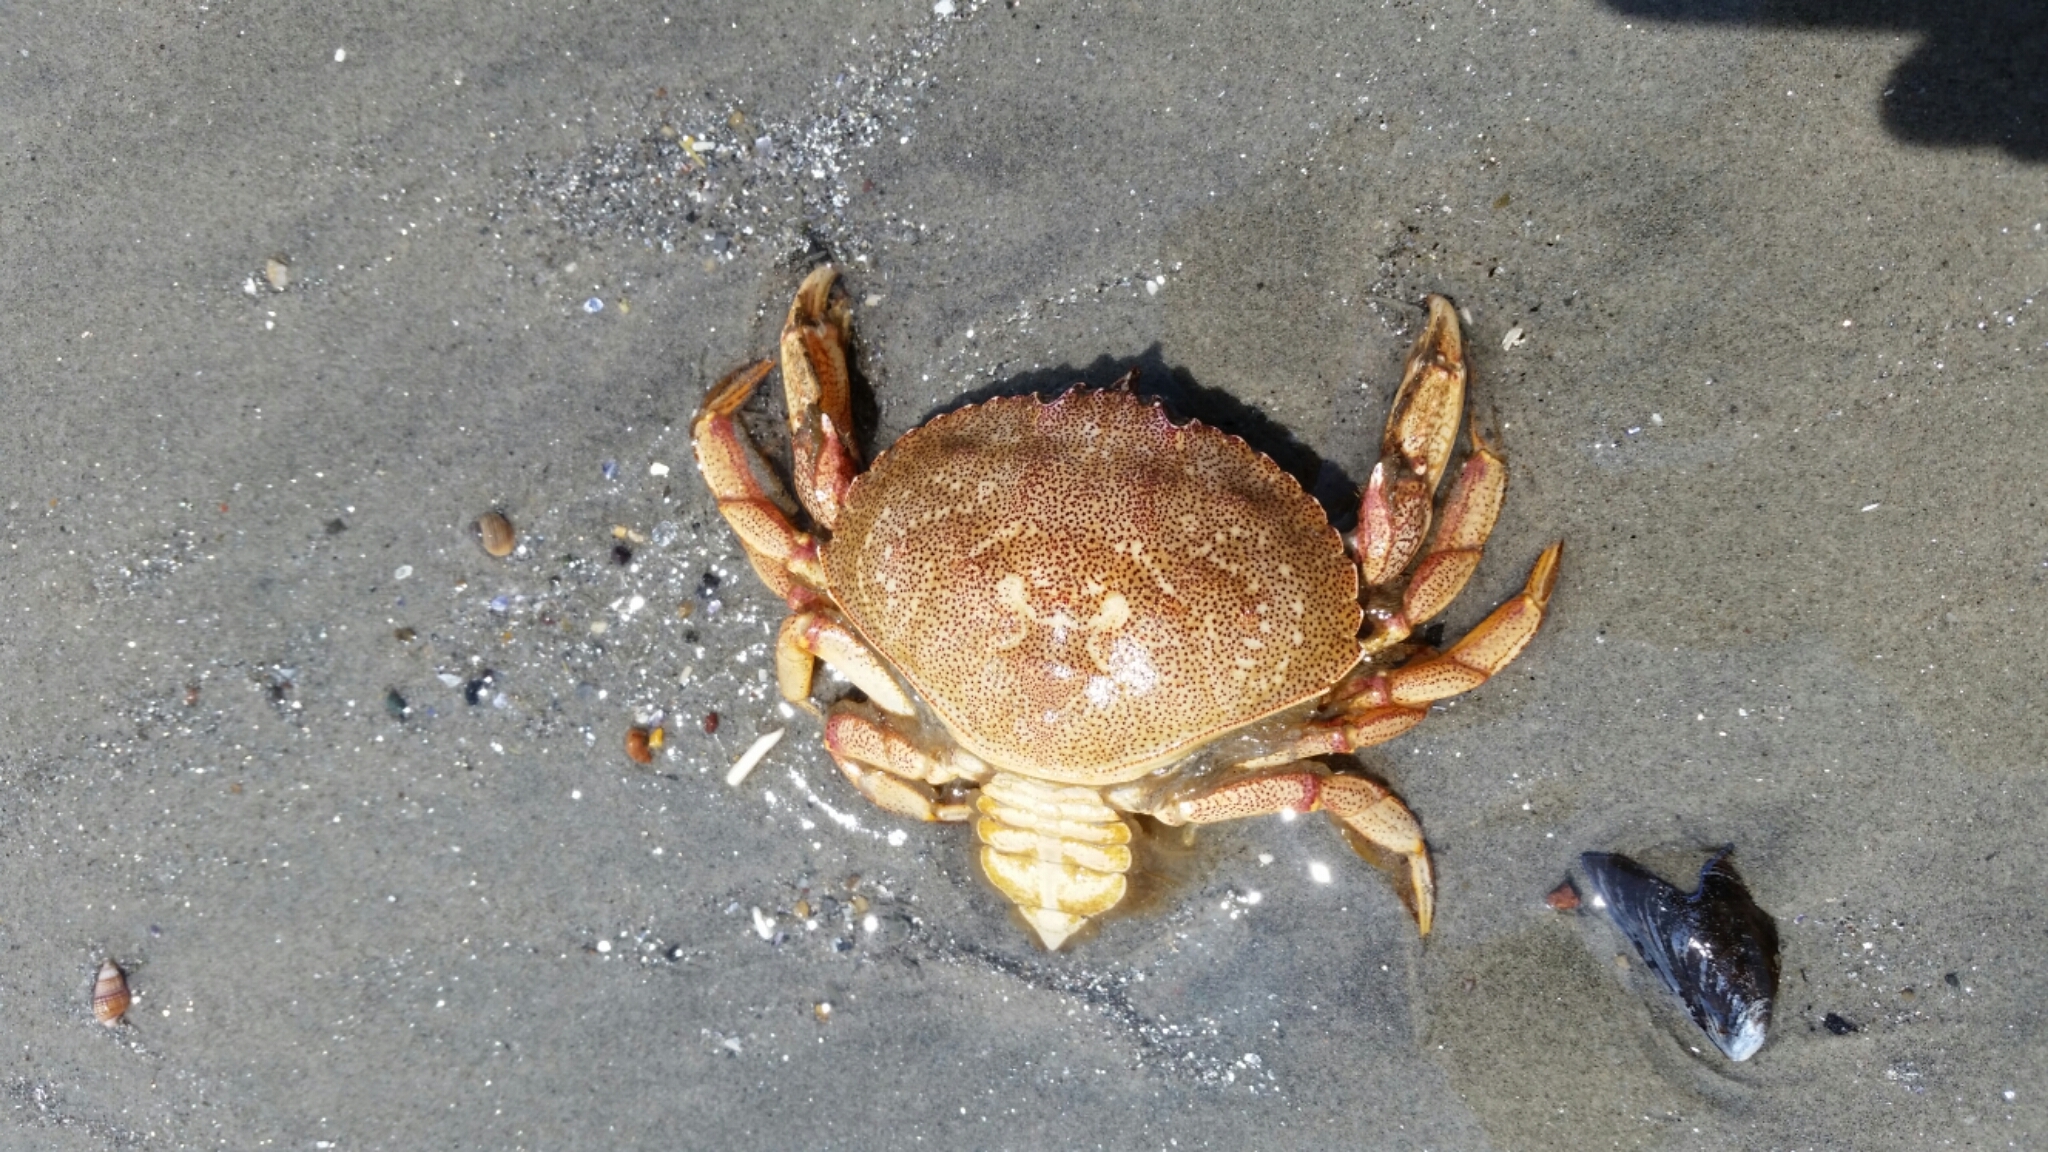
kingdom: Animalia
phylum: Arthropoda
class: Malacostraca
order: Decapoda
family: Cancridae
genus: Cancer
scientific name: Cancer irroratus
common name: Atlantic rock crab
